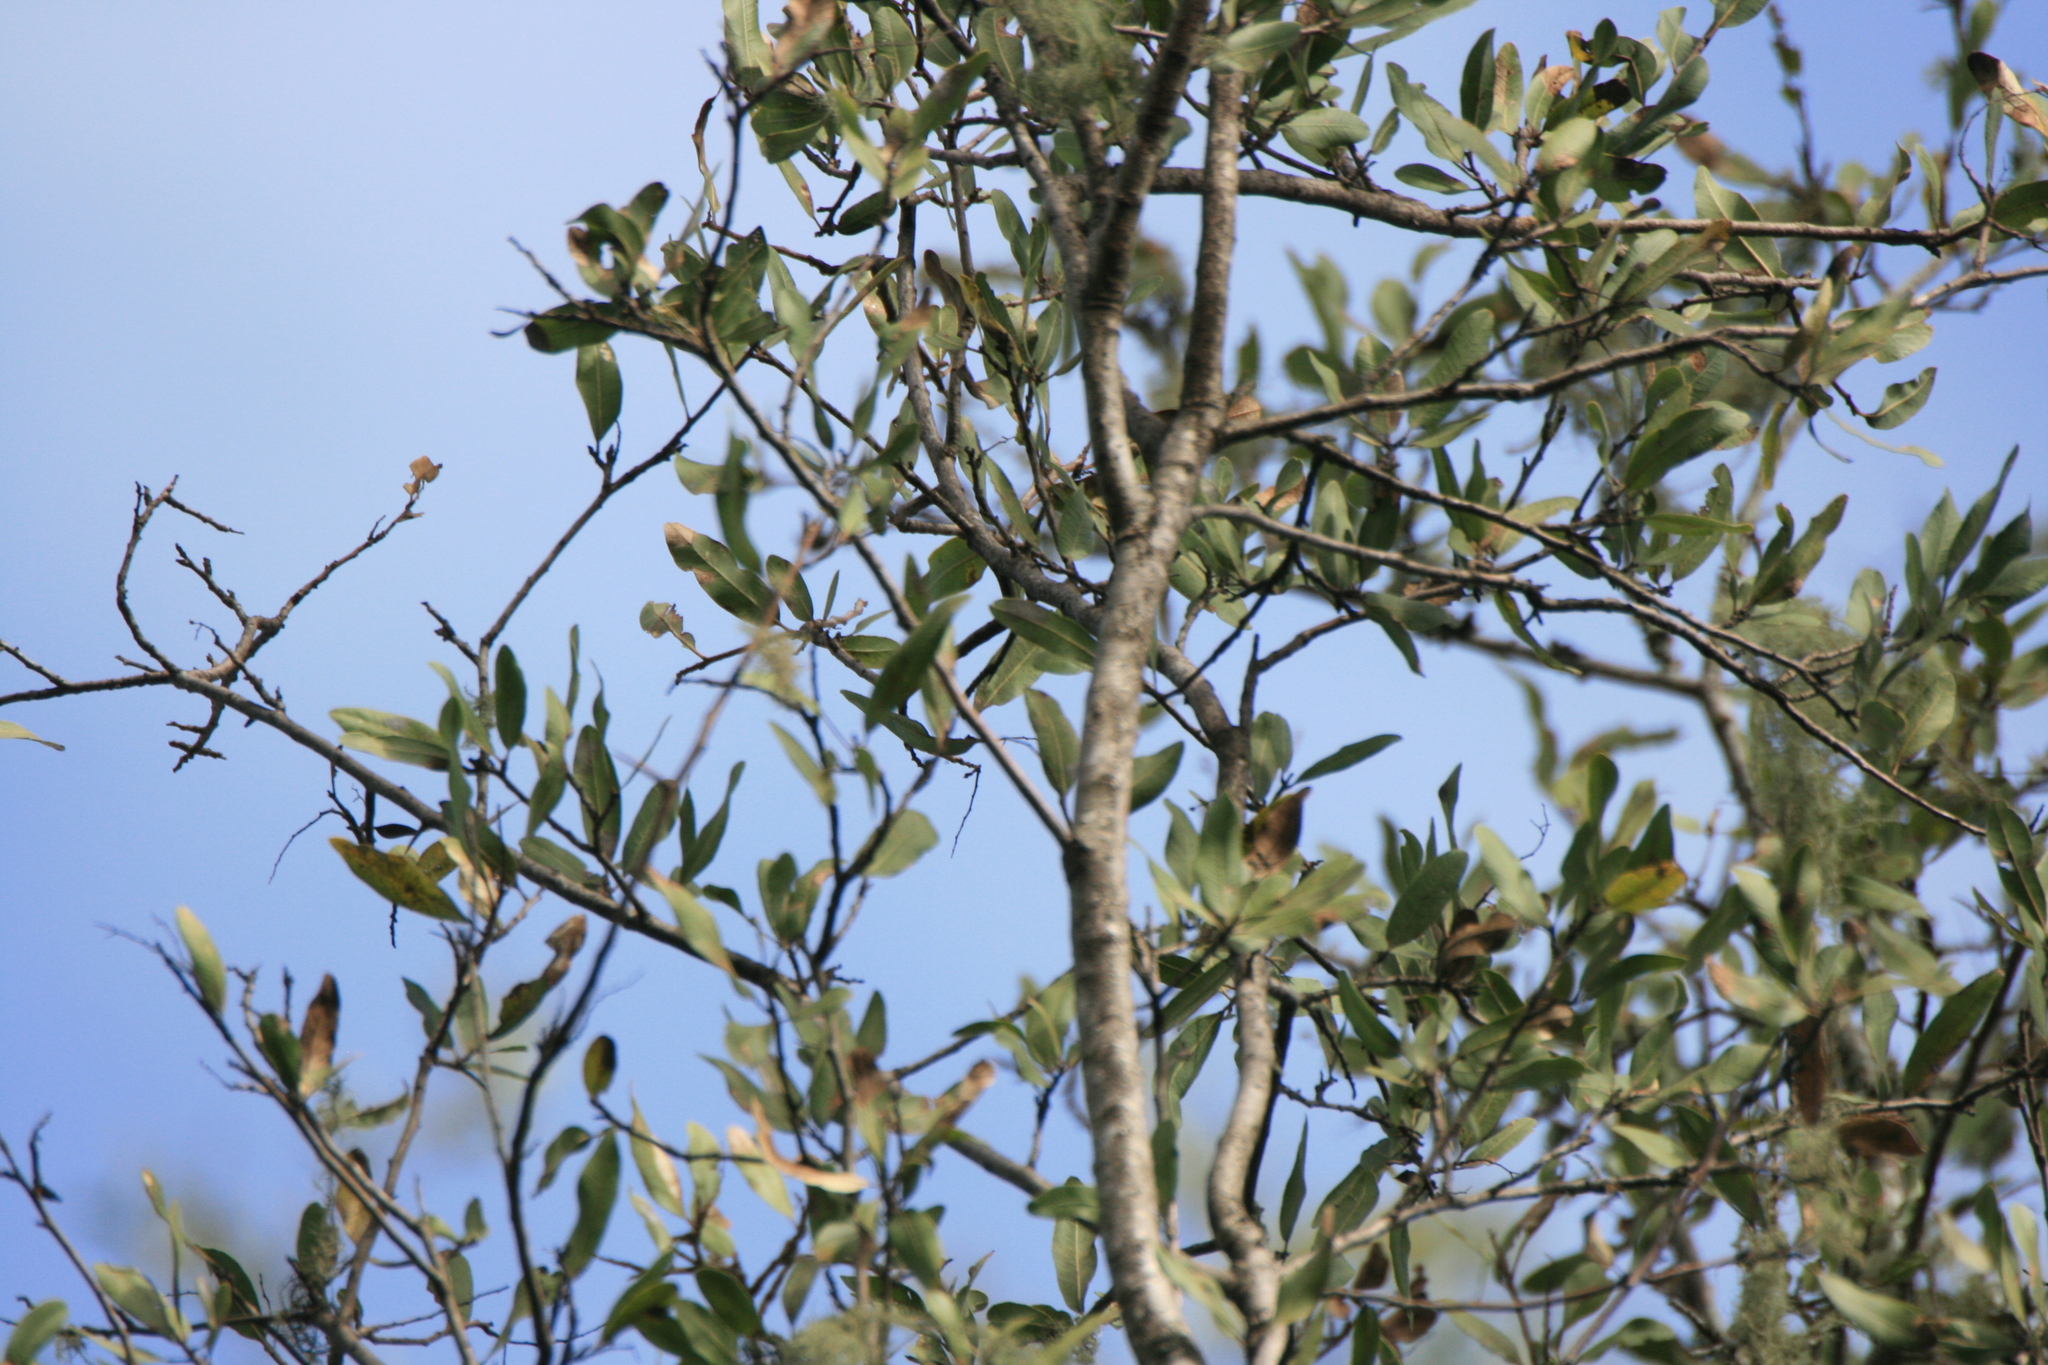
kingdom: Plantae
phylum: Tracheophyta
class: Magnoliopsida
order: Sapindales
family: Anacardiaceae
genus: Schinopsis
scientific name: Schinopsis balansae
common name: Red quebracho
